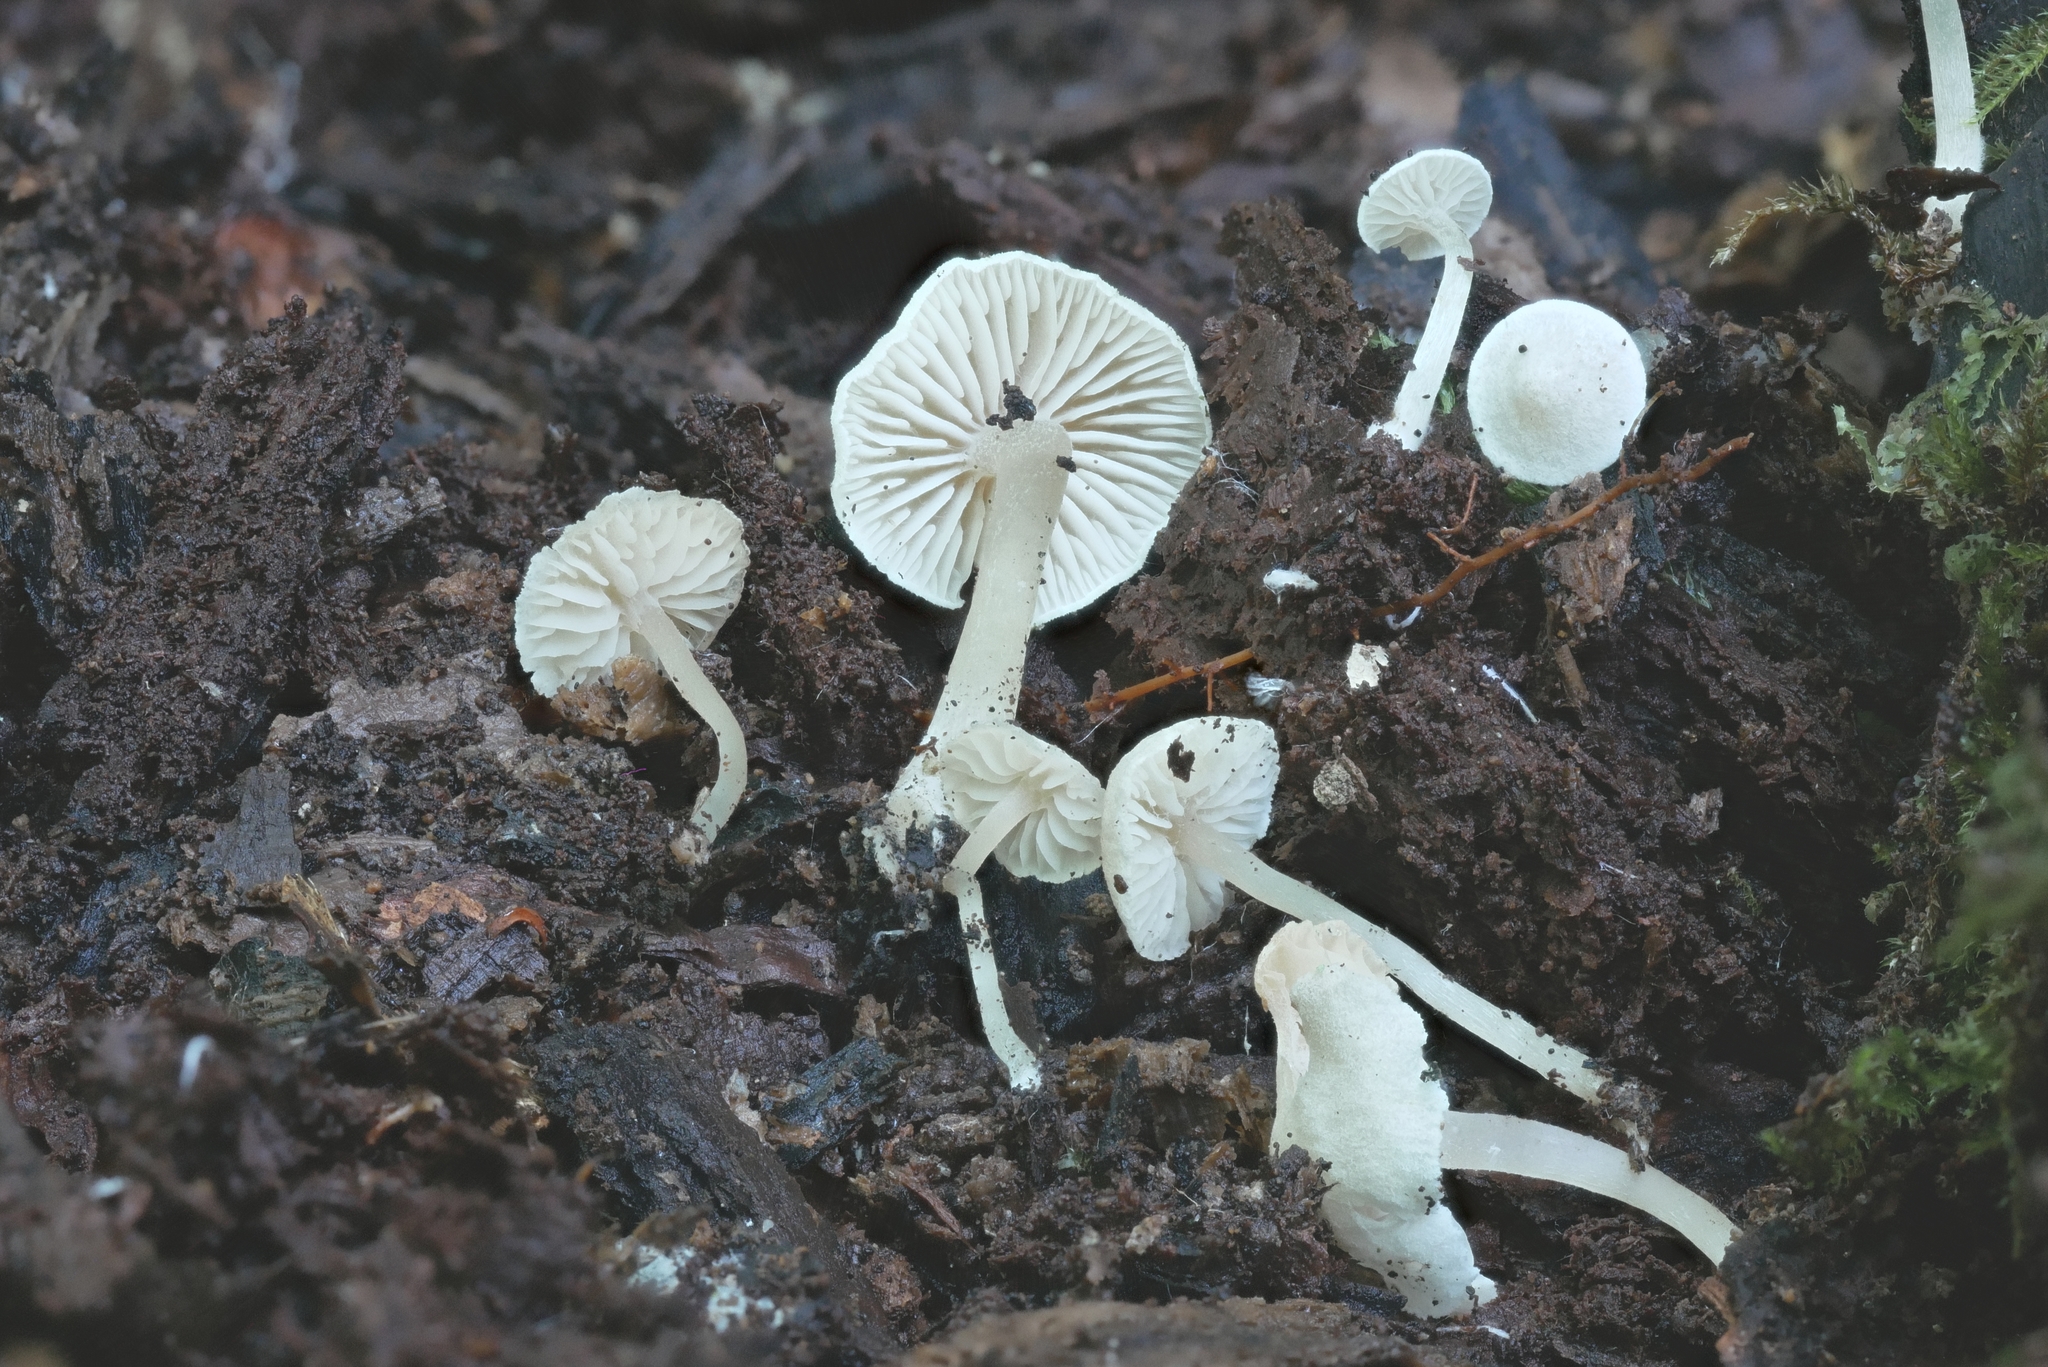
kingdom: Fungi
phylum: Basidiomycota
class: Agaricomycetes
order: Agaricales
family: Callistosporiaceae
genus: Callistosporium
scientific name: Callistosporium pseudofelleum
